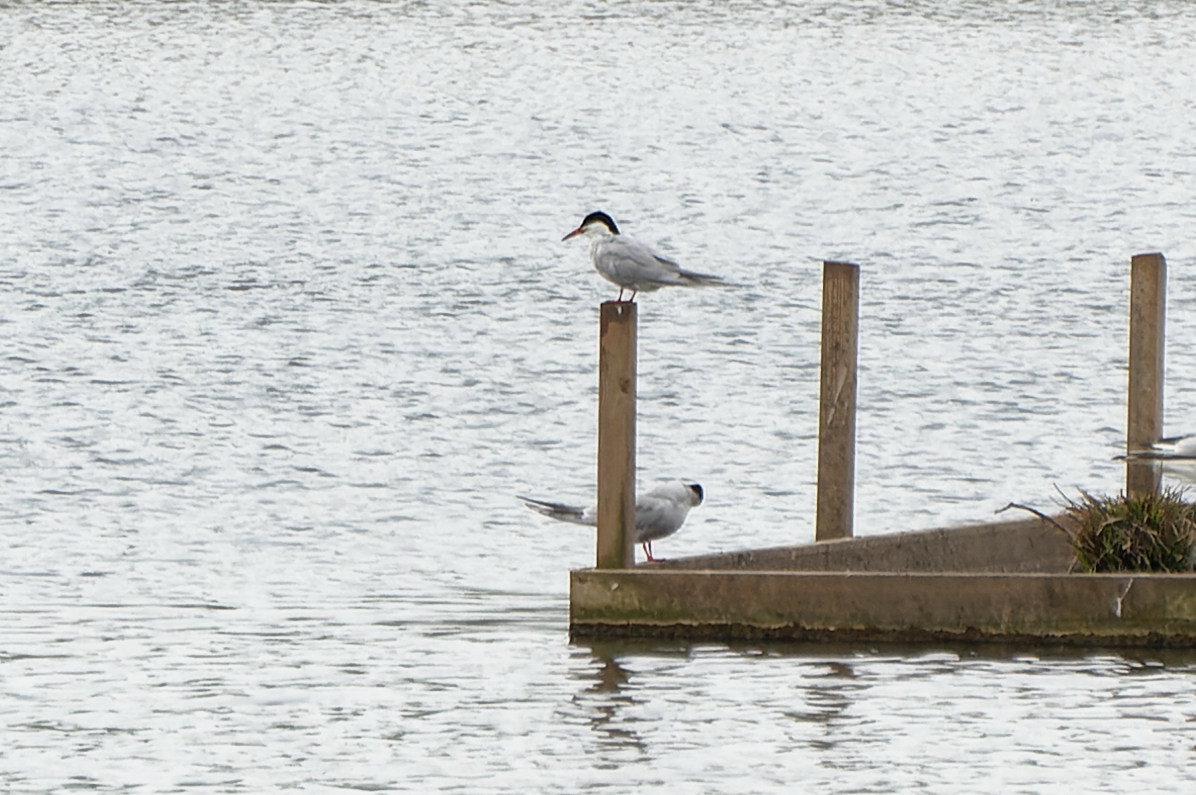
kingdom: Animalia
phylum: Chordata
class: Aves
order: Charadriiformes
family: Laridae
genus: Sterna
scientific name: Sterna hirundo
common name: Common tern
